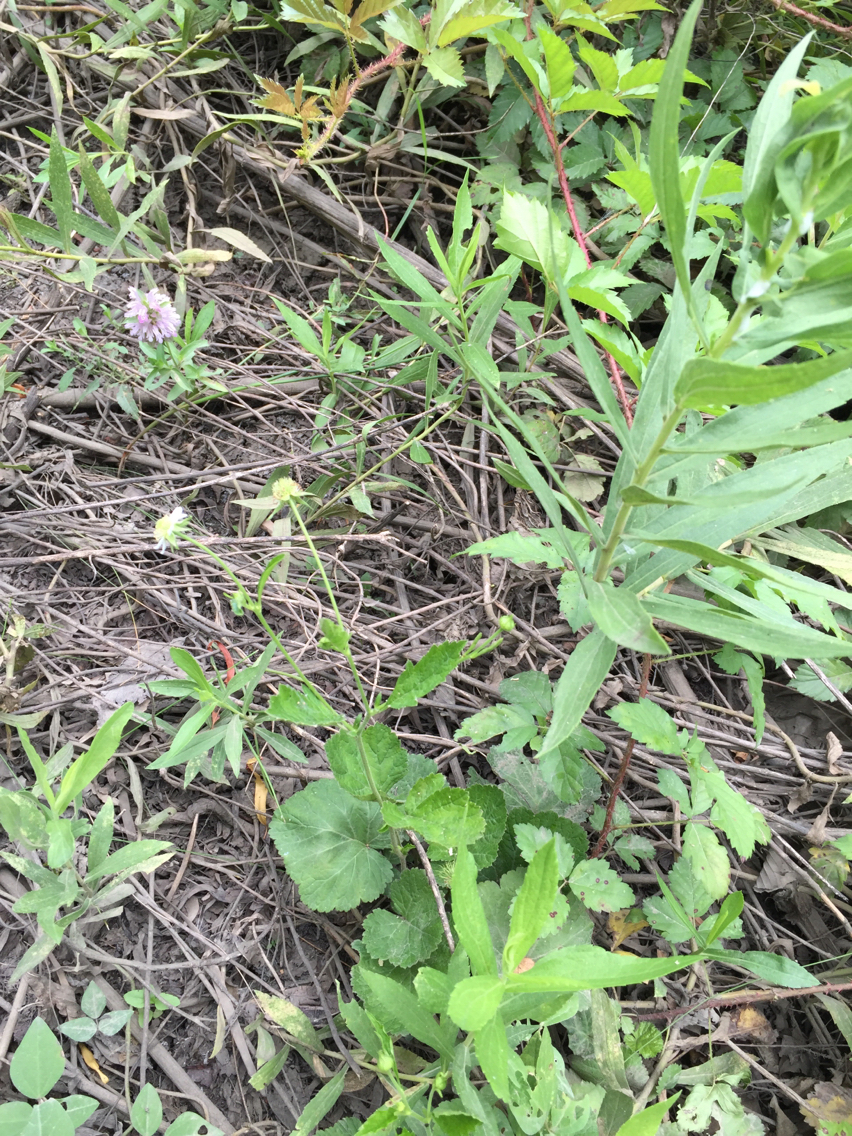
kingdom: Plantae
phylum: Tracheophyta
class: Magnoliopsida
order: Rosales
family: Rosaceae
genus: Geum
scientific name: Geum canadense
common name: White avens
